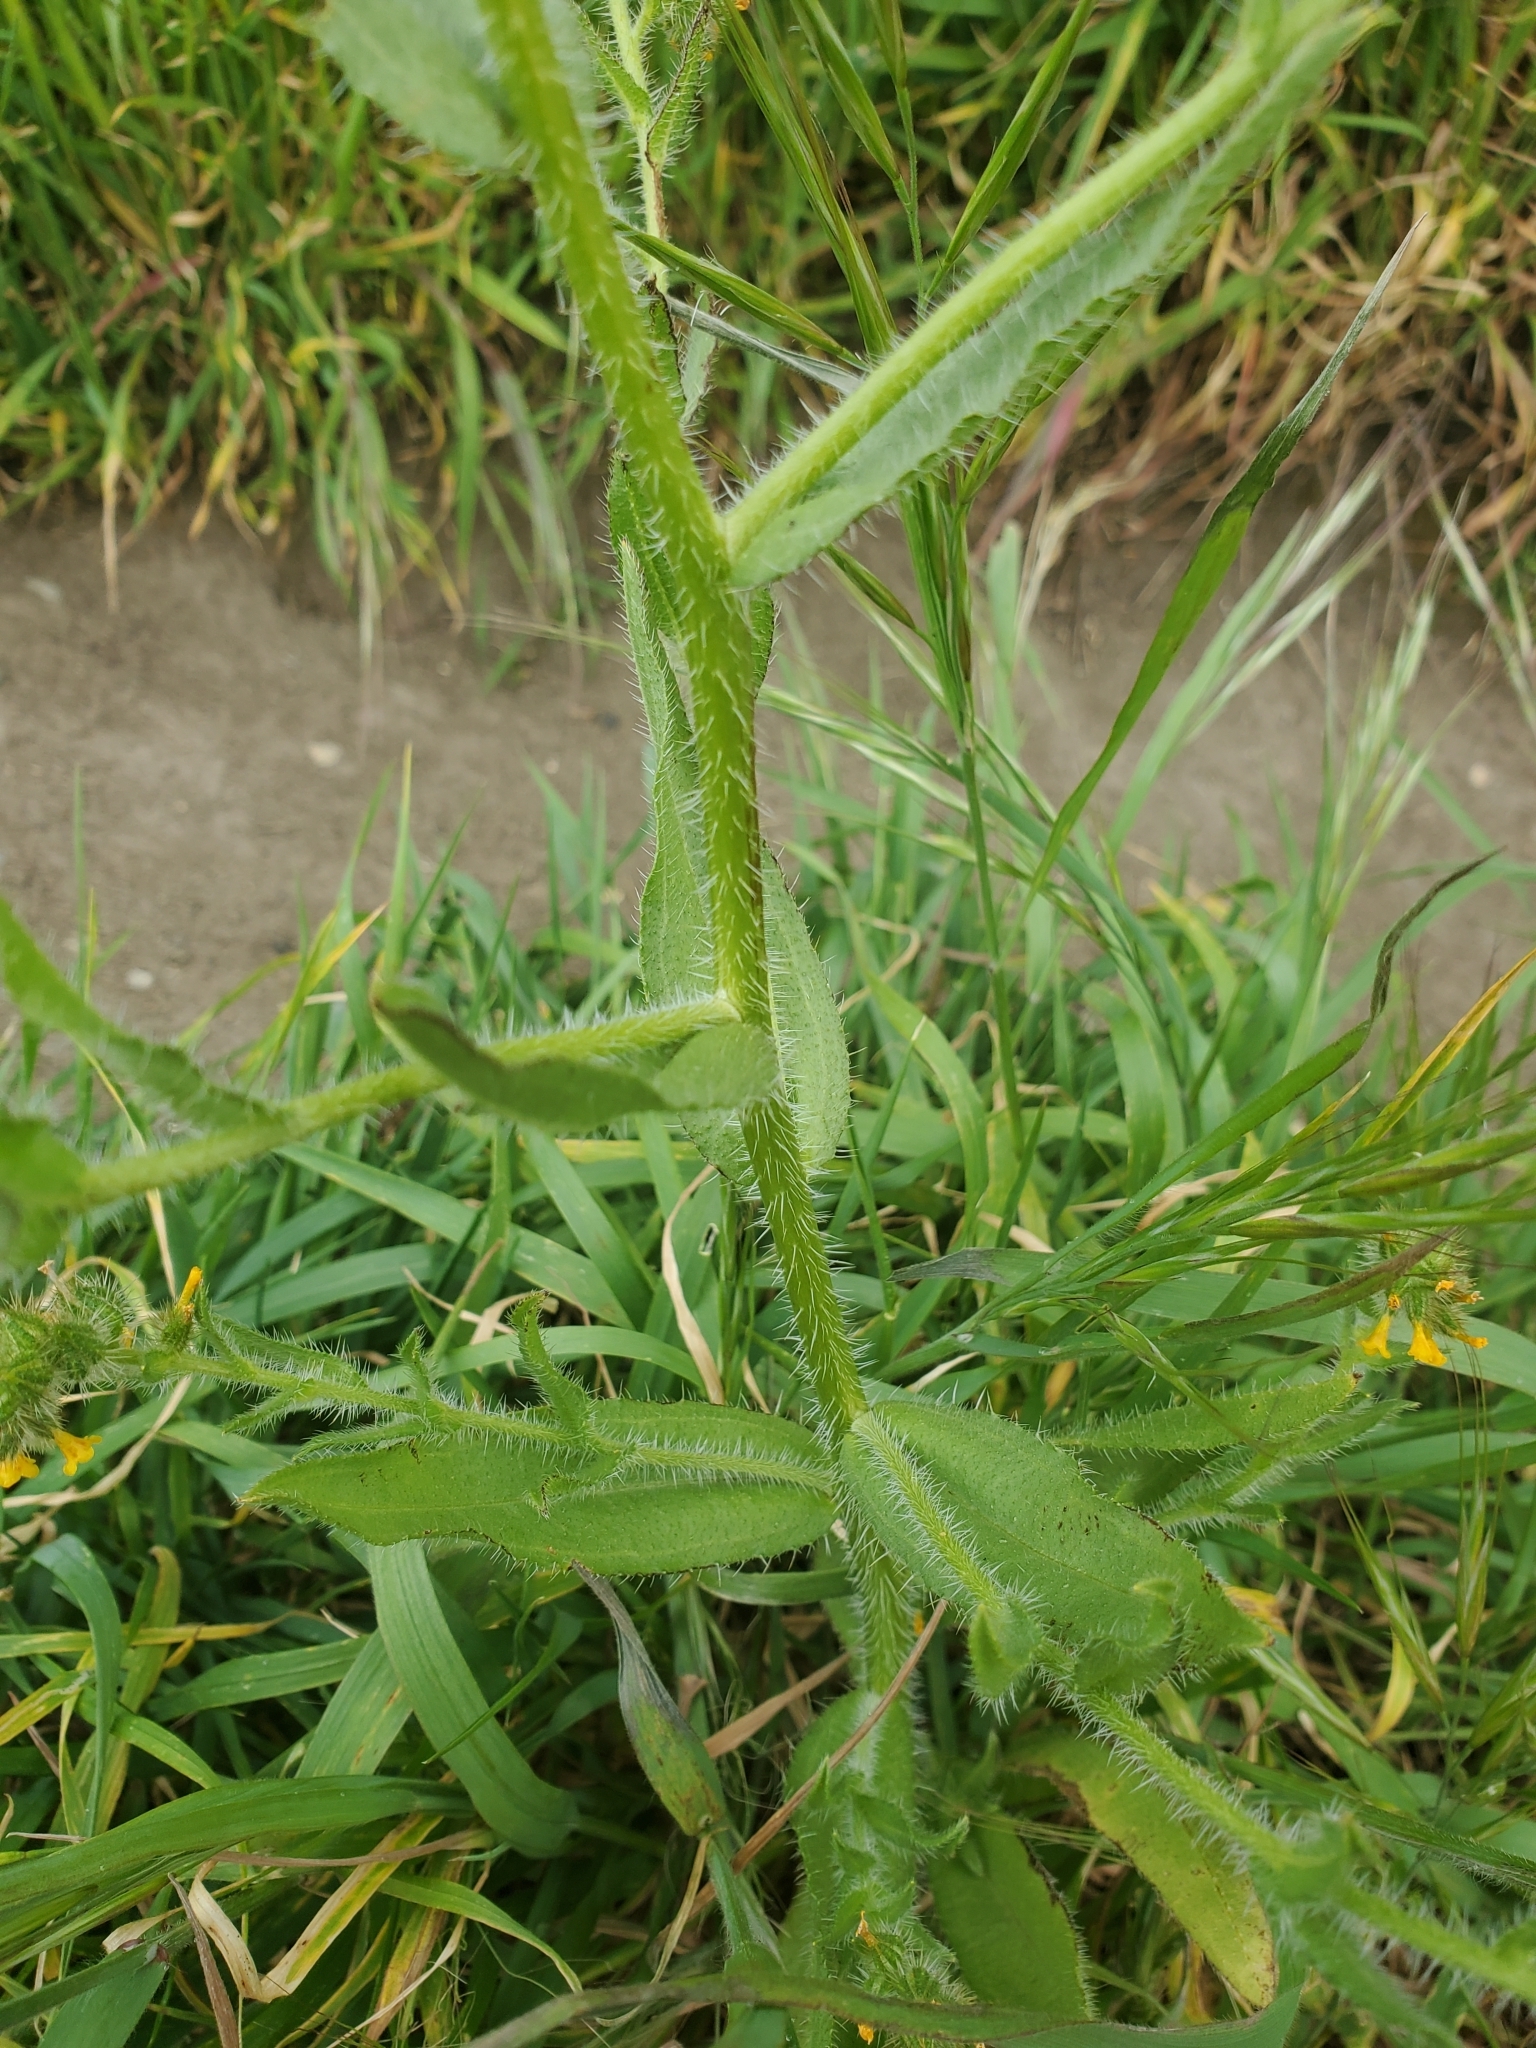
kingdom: Plantae
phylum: Tracheophyta
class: Magnoliopsida
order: Boraginales
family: Boraginaceae
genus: Amsinckia
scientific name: Amsinckia menziesii
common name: Menzies' fiddleneck
